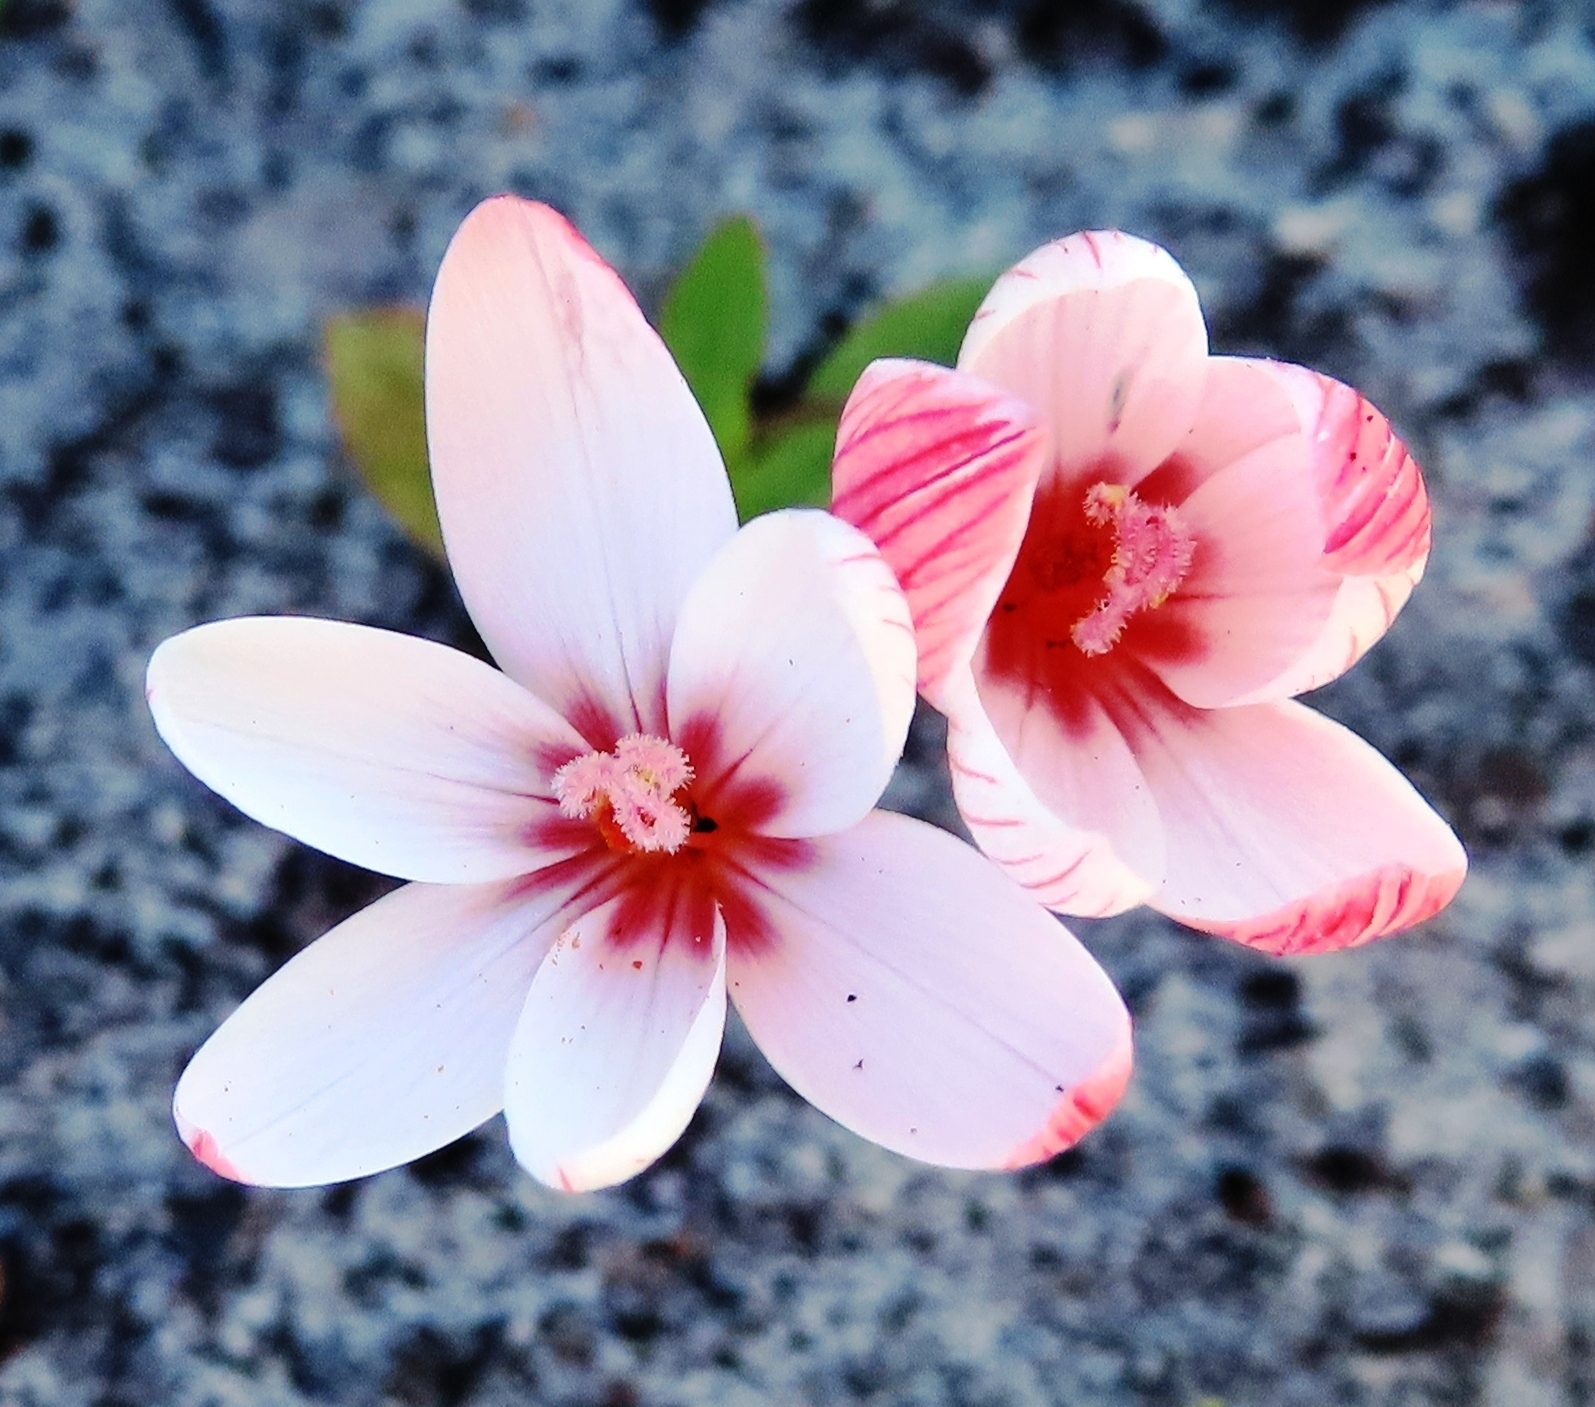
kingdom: Plantae
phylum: Tracheophyta
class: Liliopsida
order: Asparagales
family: Iridaceae
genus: Geissorhiza
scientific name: Geissorhiza ovata
